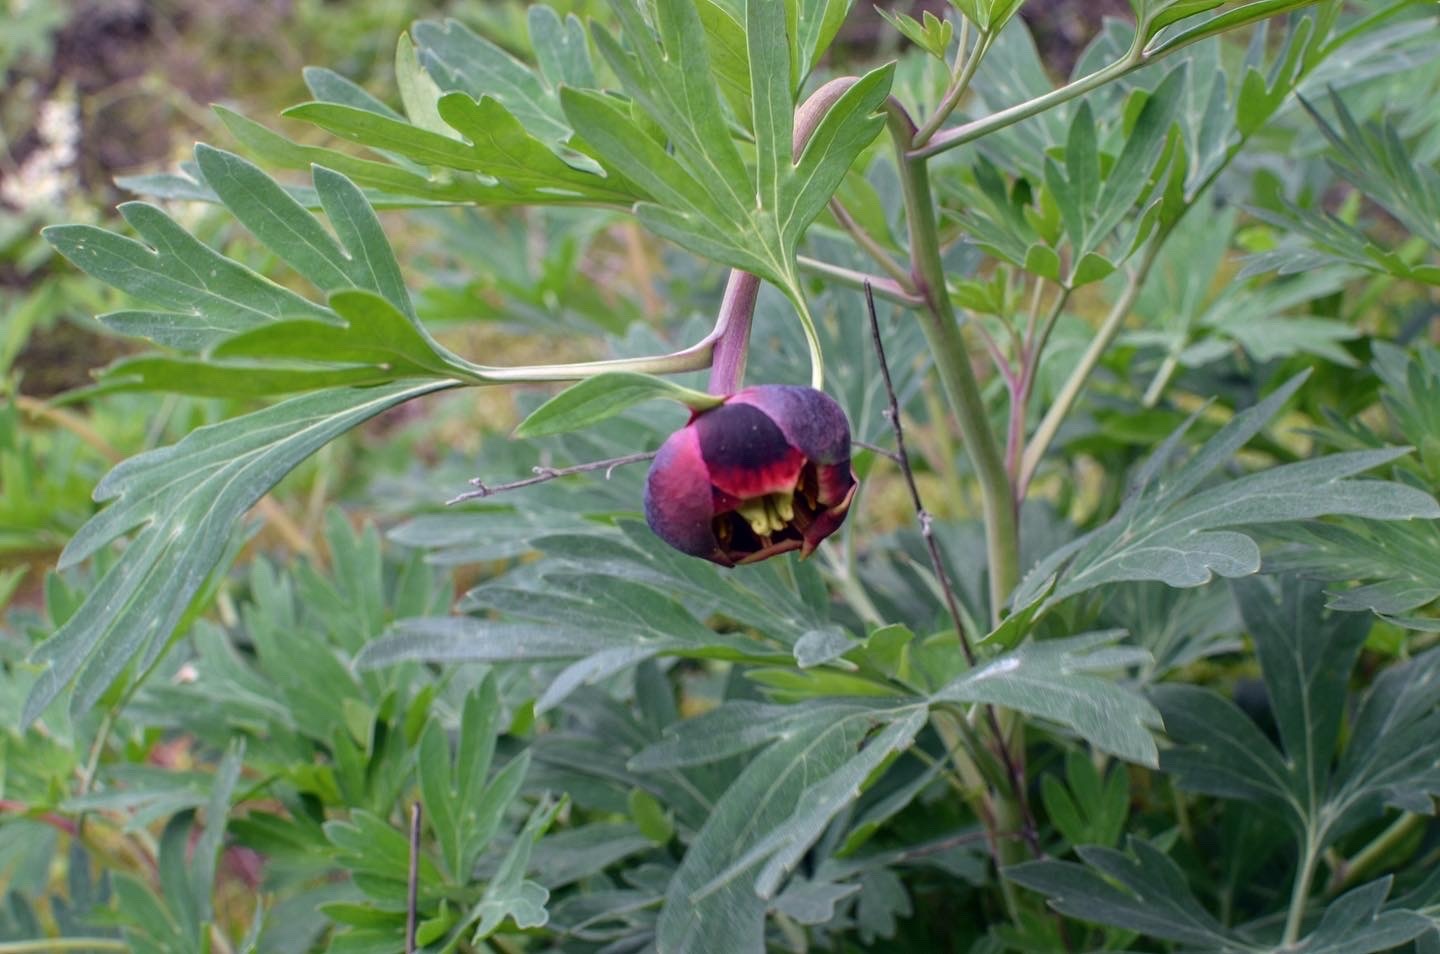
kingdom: Plantae
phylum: Tracheophyta
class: Magnoliopsida
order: Saxifragales
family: Paeoniaceae
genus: Paeonia
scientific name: Paeonia californica
